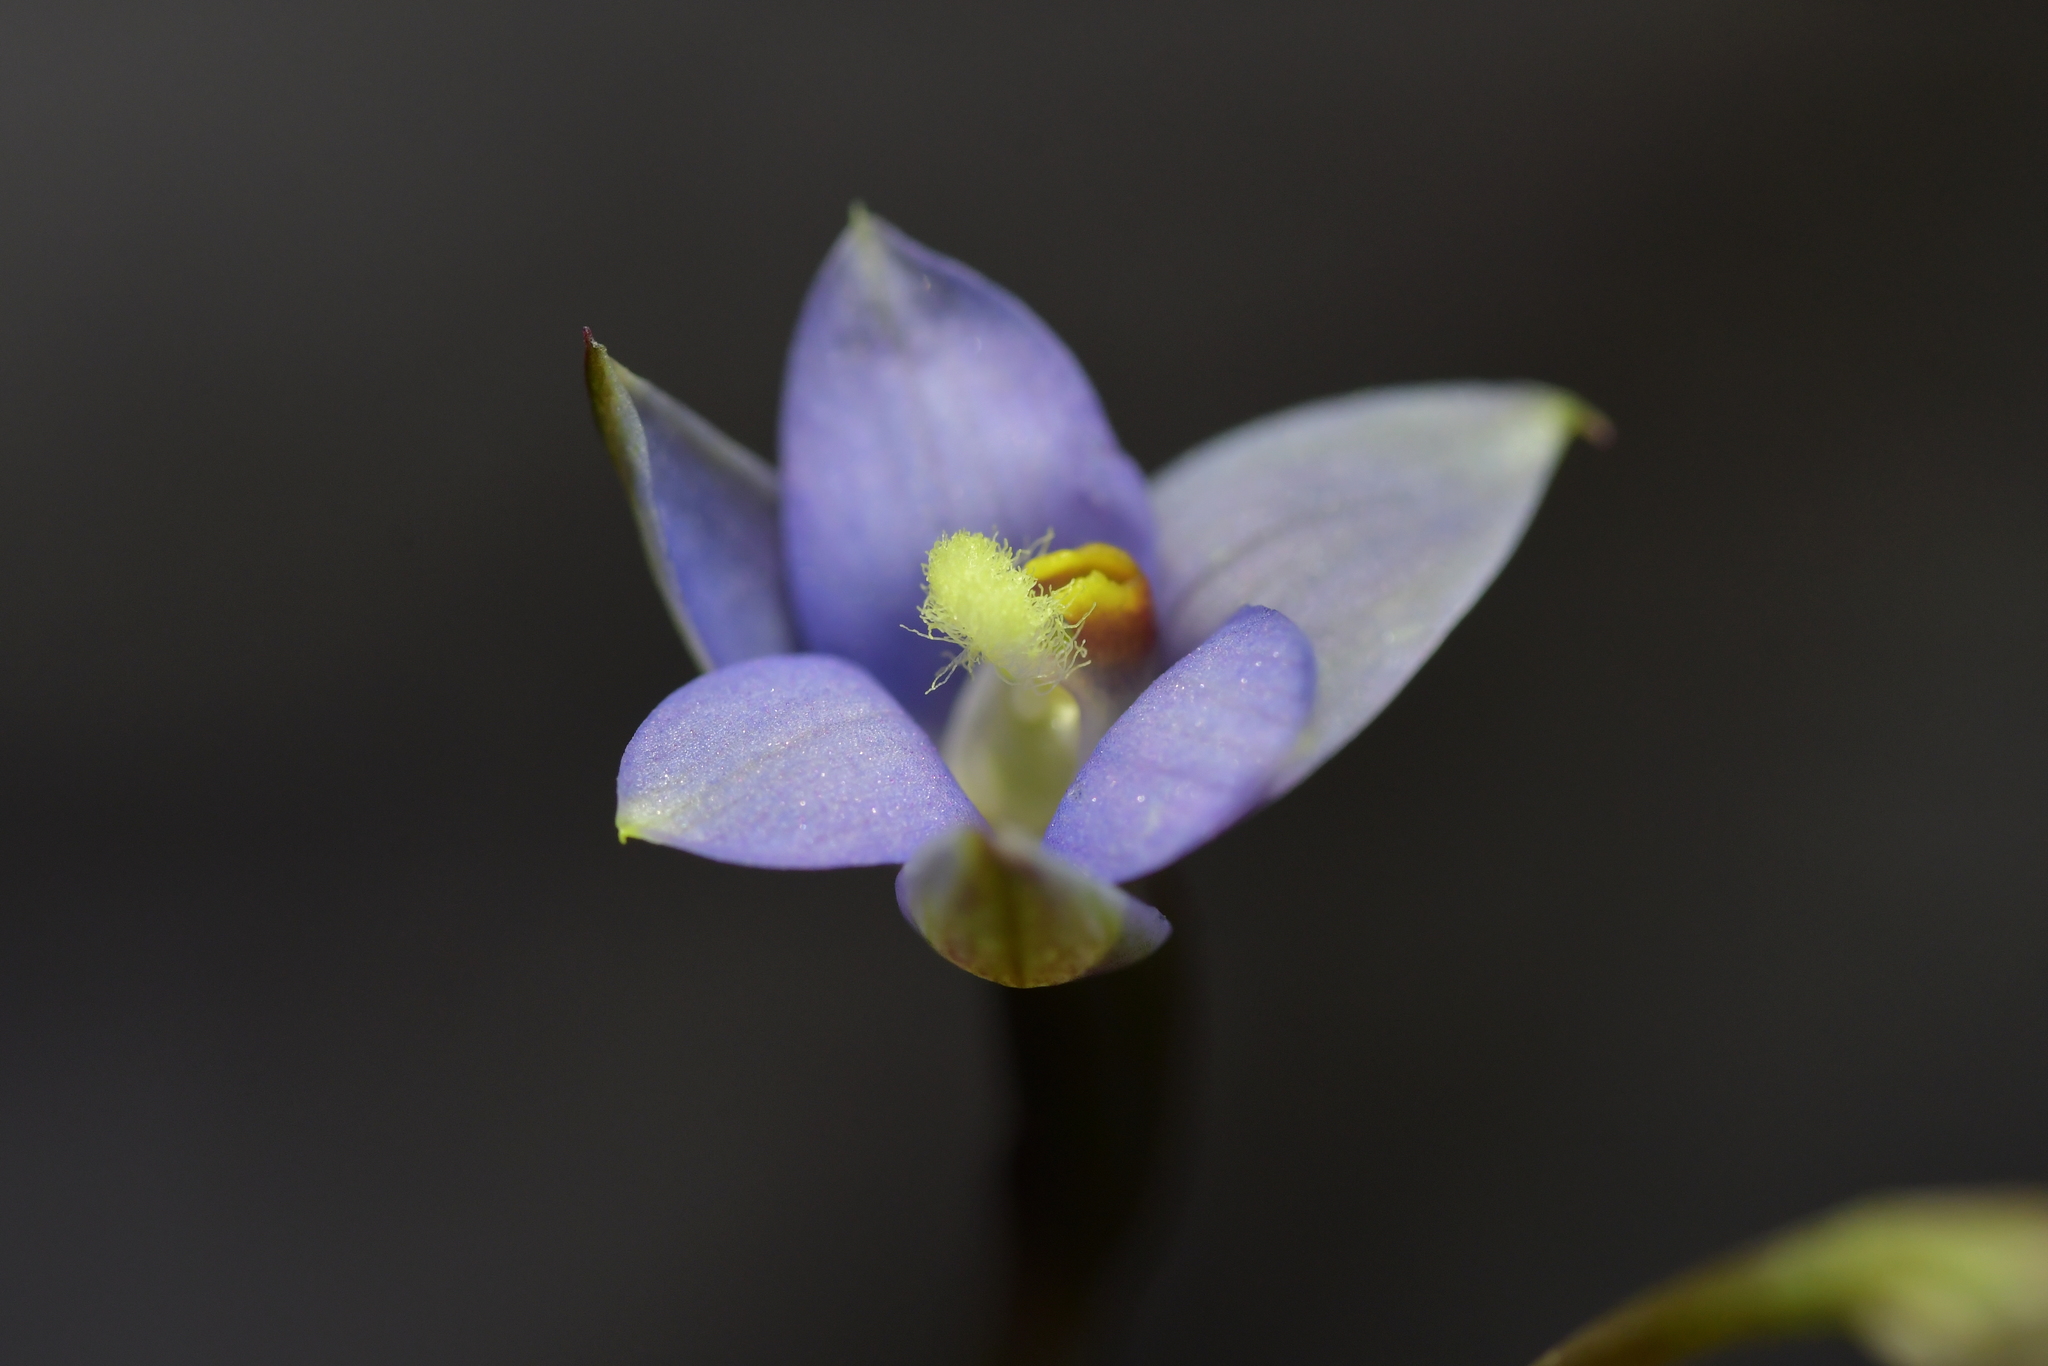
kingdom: Plantae
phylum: Tracheophyta
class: Liliopsida
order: Asparagales
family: Orchidaceae
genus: Thelymitra
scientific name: Thelymitra hatchii
